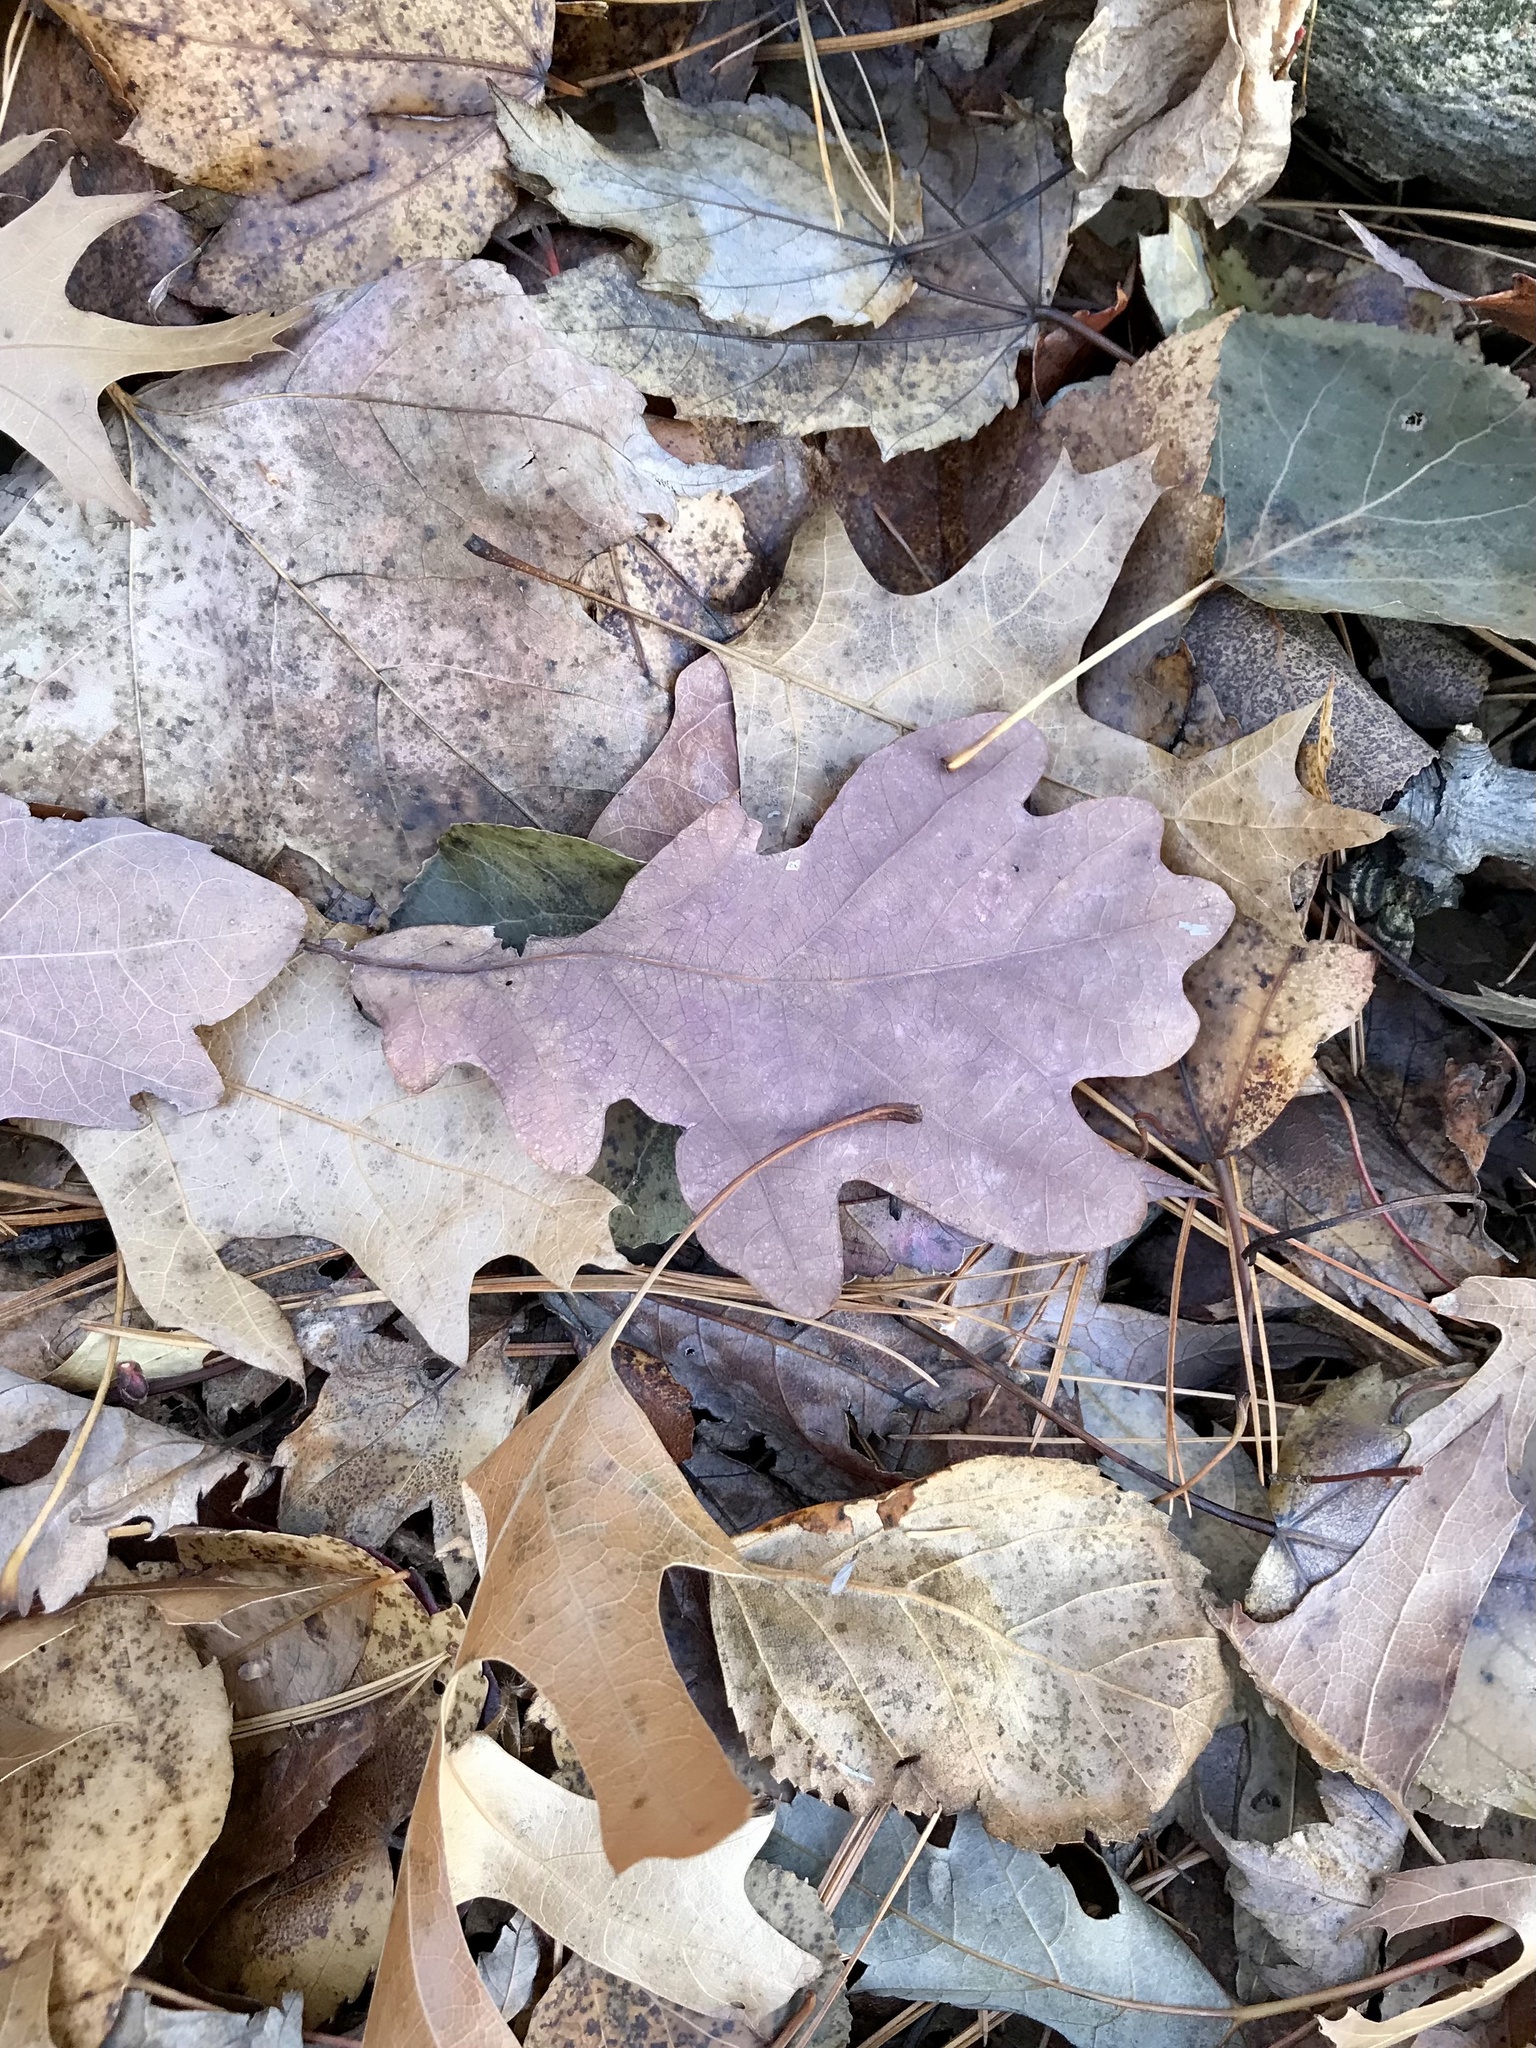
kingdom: Plantae
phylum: Tracheophyta
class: Magnoliopsida
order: Fagales
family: Fagaceae
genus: Quercus
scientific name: Quercus alba
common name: White oak
